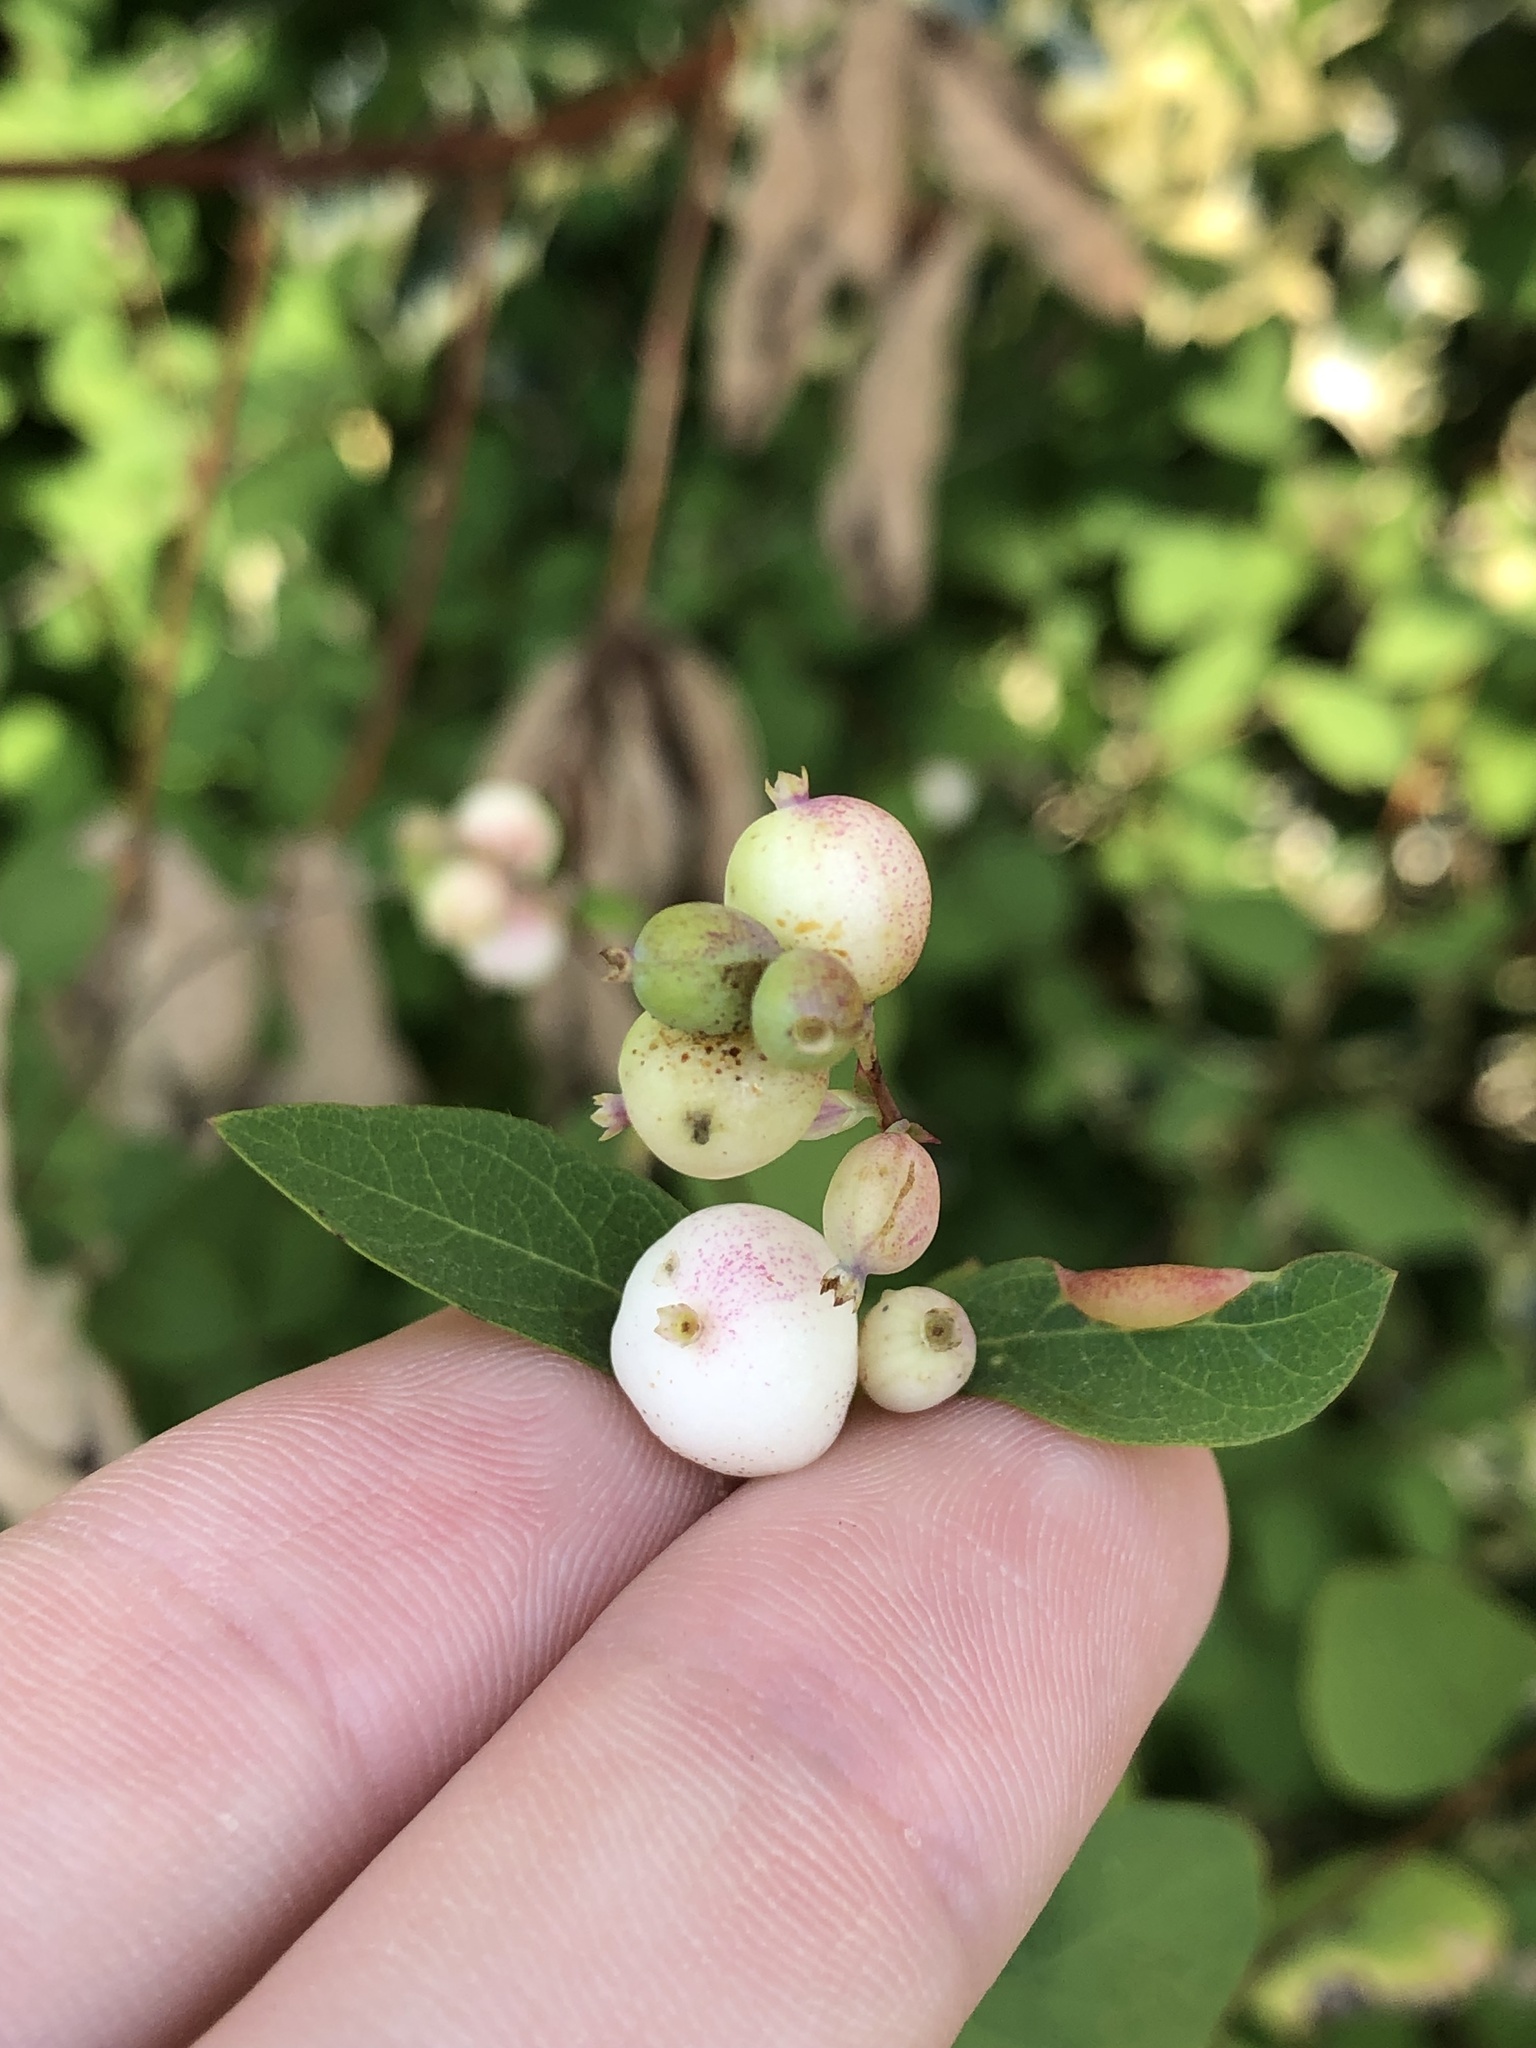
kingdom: Plantae
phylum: Tracheophyta
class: Magnoliopsida
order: Dipsacales
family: Caprifoliaceae
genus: Symphoricarpos
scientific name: Symphoricarpos albus
